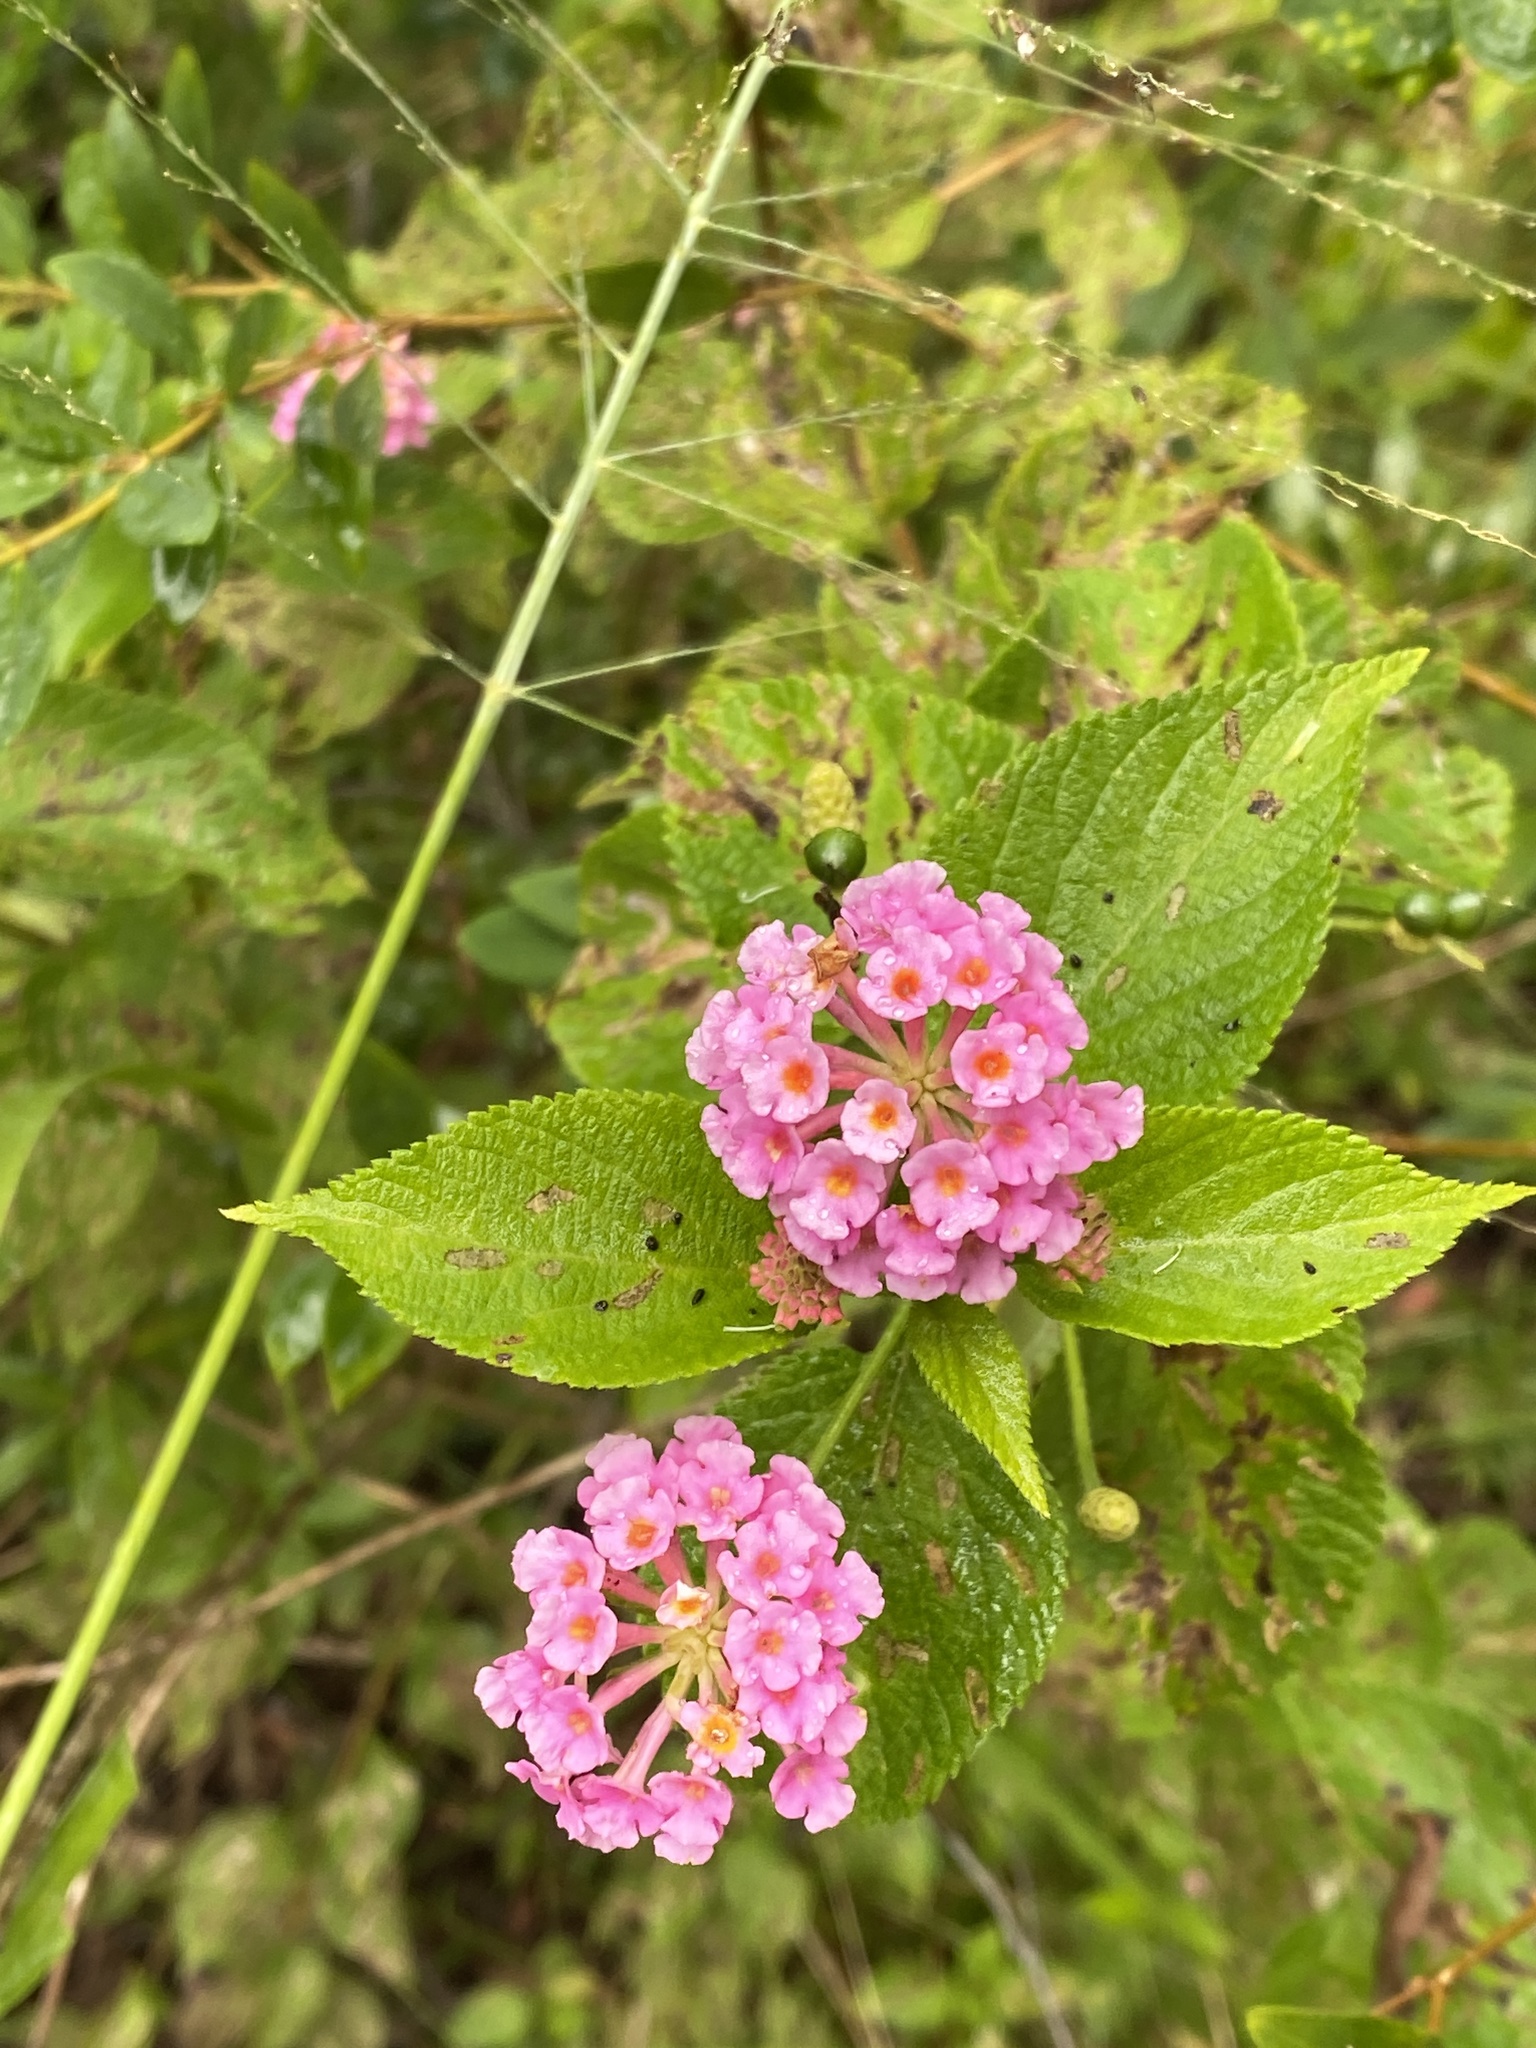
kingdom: Plantae
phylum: Tracheophyta
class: Magnoliopsida
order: Lamiales
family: Verbenaceae
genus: Lantana
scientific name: Lantana camara
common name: Lantana
